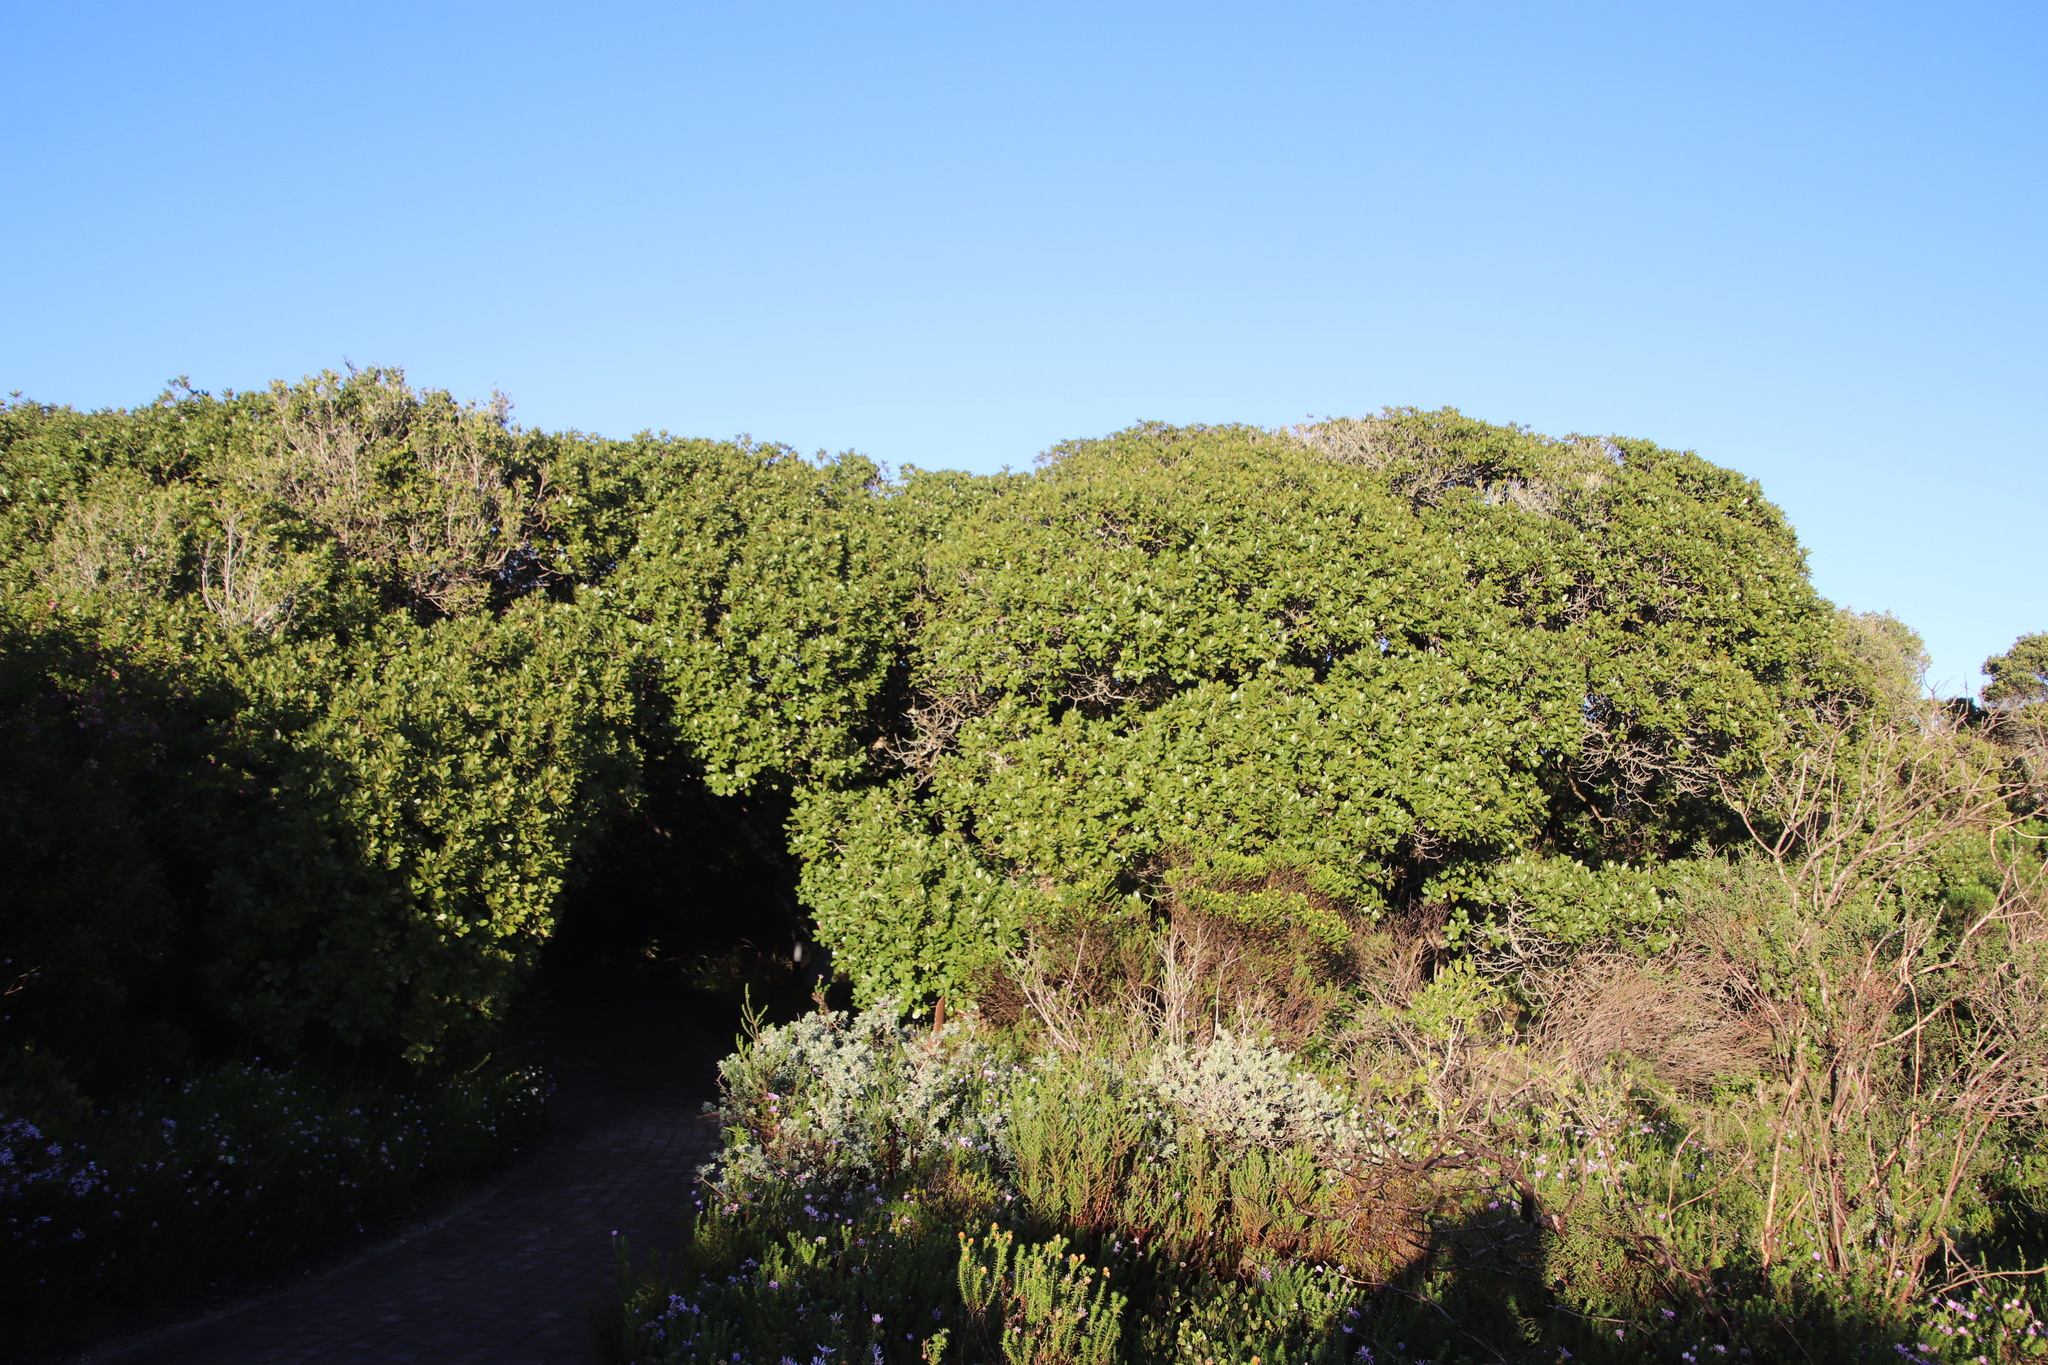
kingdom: Plantae
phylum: Tracheophyta
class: Magnoliopsida
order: Ericales
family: Sapotaceae
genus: Sideroxylon
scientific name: Sideroxylon inerme
